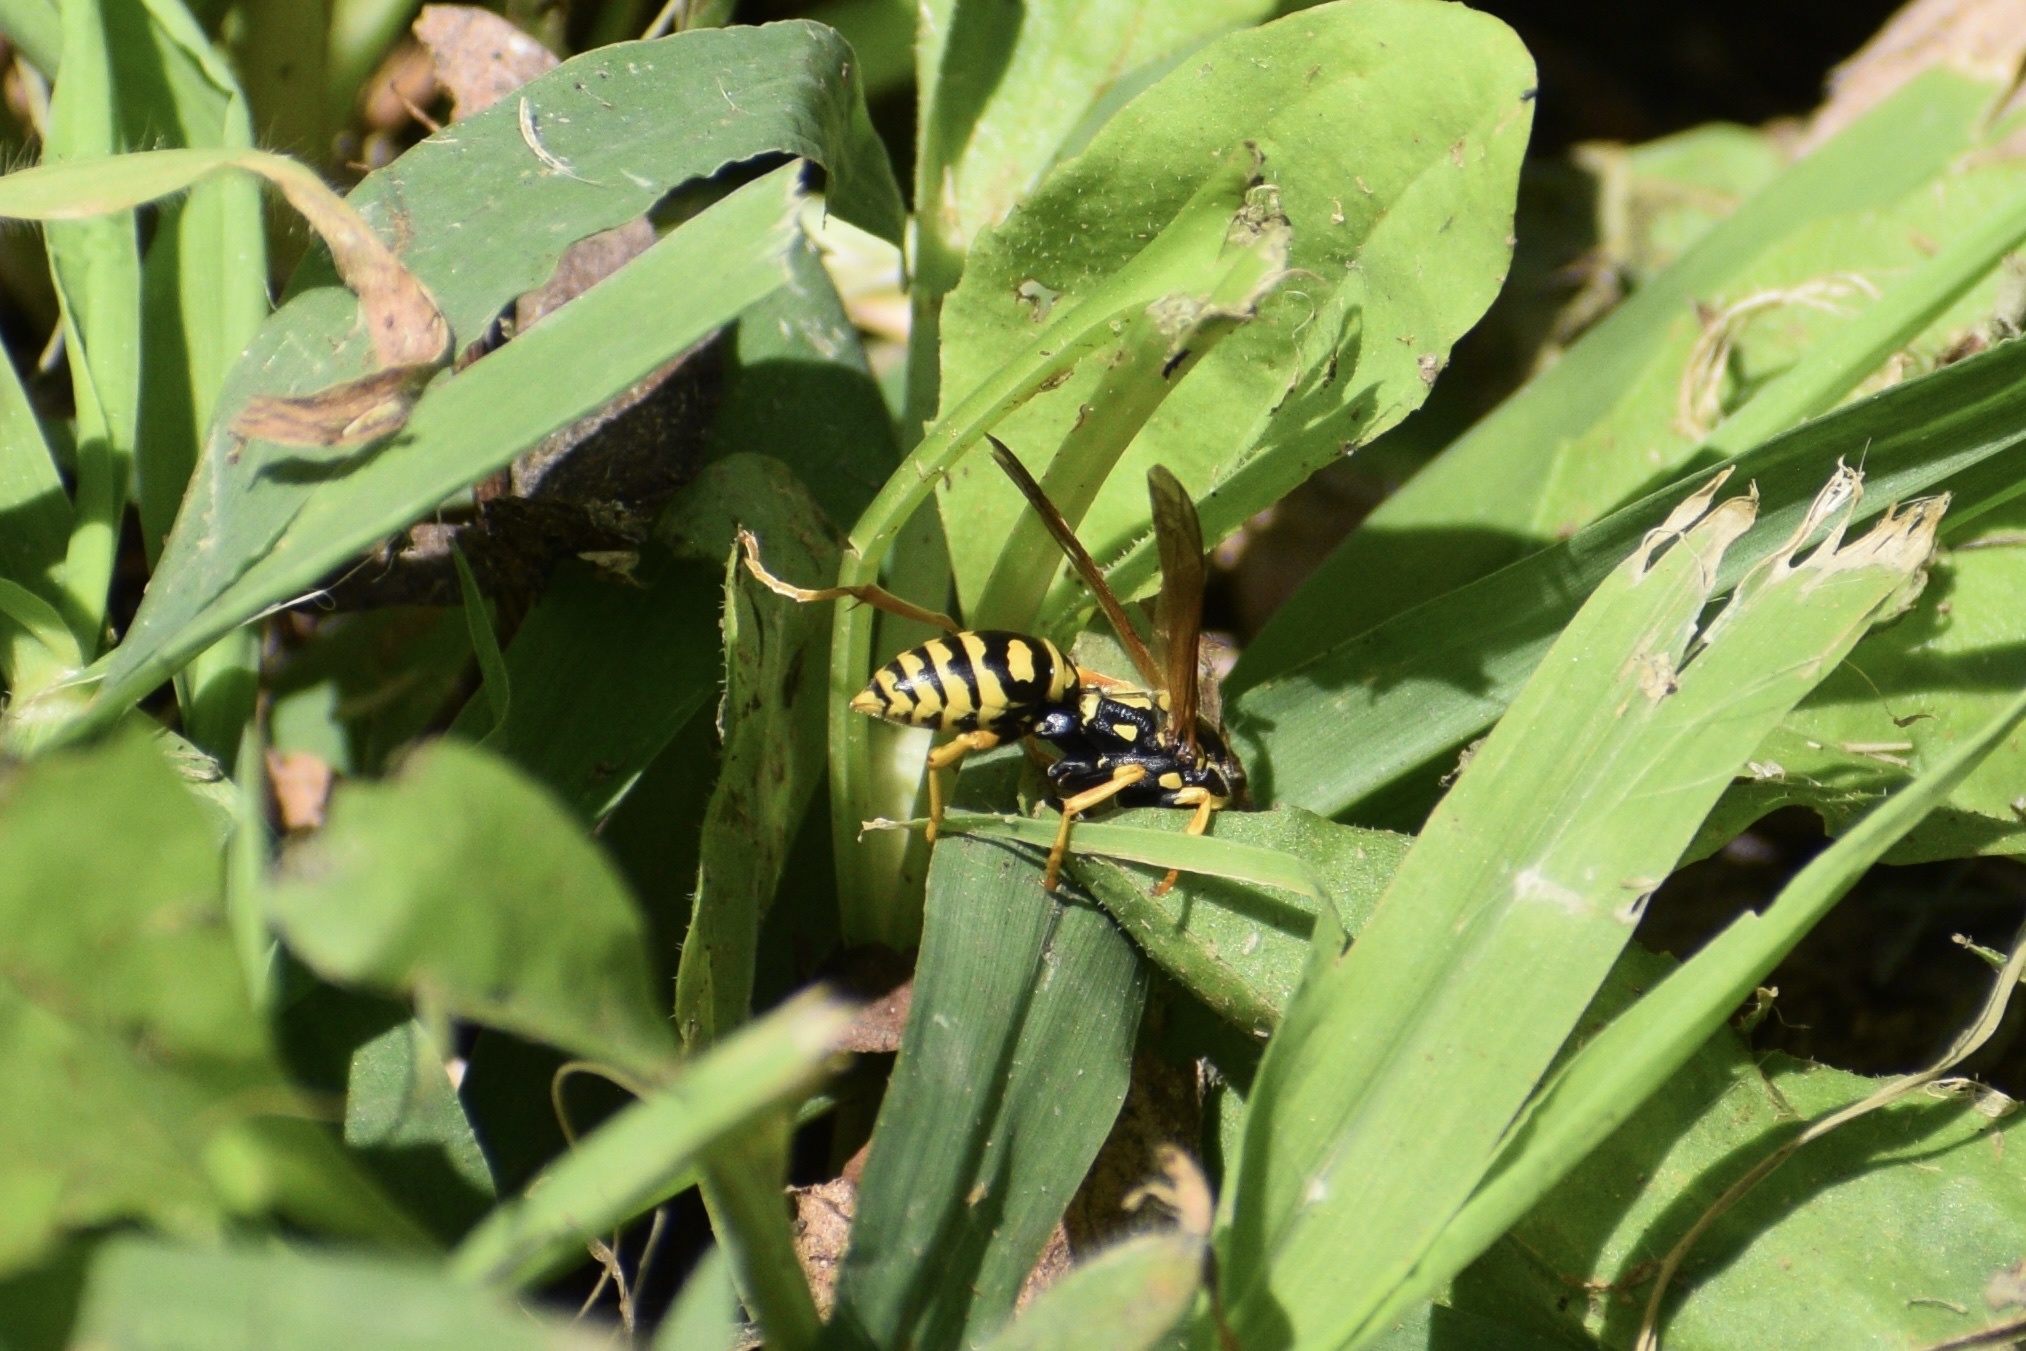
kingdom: Animalia
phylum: Arthropoda
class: Insecta
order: Hymenoptera
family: Eumenidae
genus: Polistes
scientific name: Polistes dominula
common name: Paper wasp
